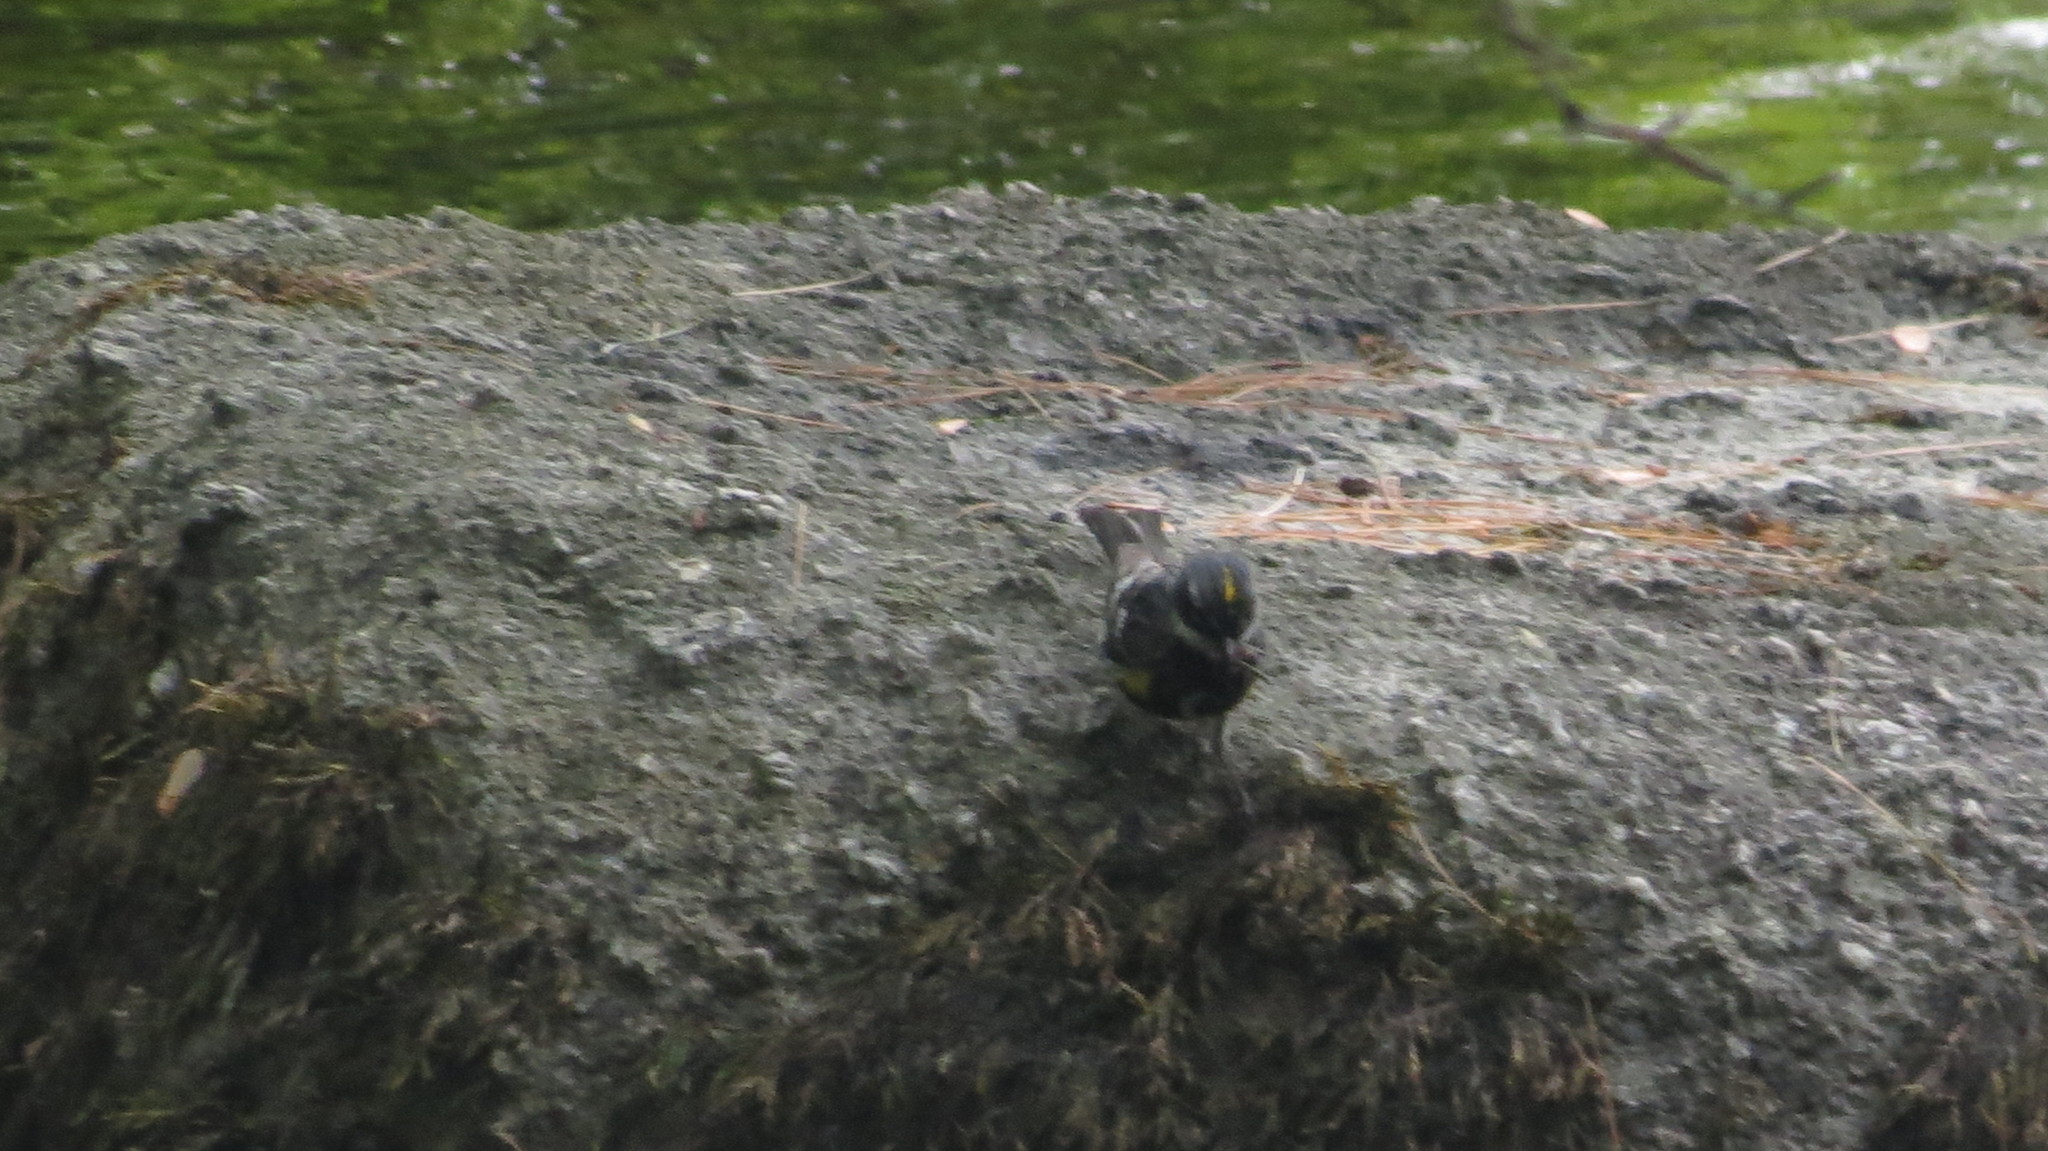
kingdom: Animalia
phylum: Chordata
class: Aves
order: Passeriformes
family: Parulidae
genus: Setophaga
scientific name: Setophaga coronata
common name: Myrtle warbler
